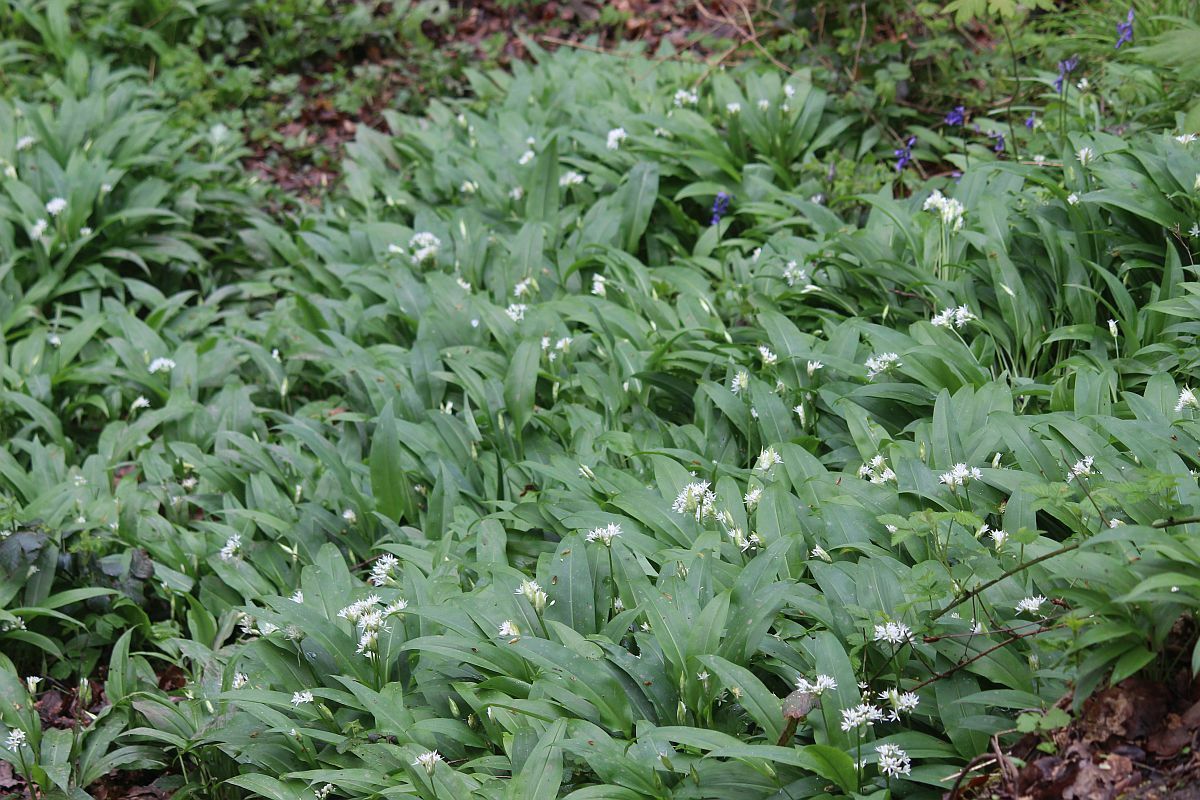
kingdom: Plantae
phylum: Tracheophyta
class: Liliopsida
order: Asparagales
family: Amaryllidaceae
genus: Allium
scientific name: Allium ursinum
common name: Ramsons
